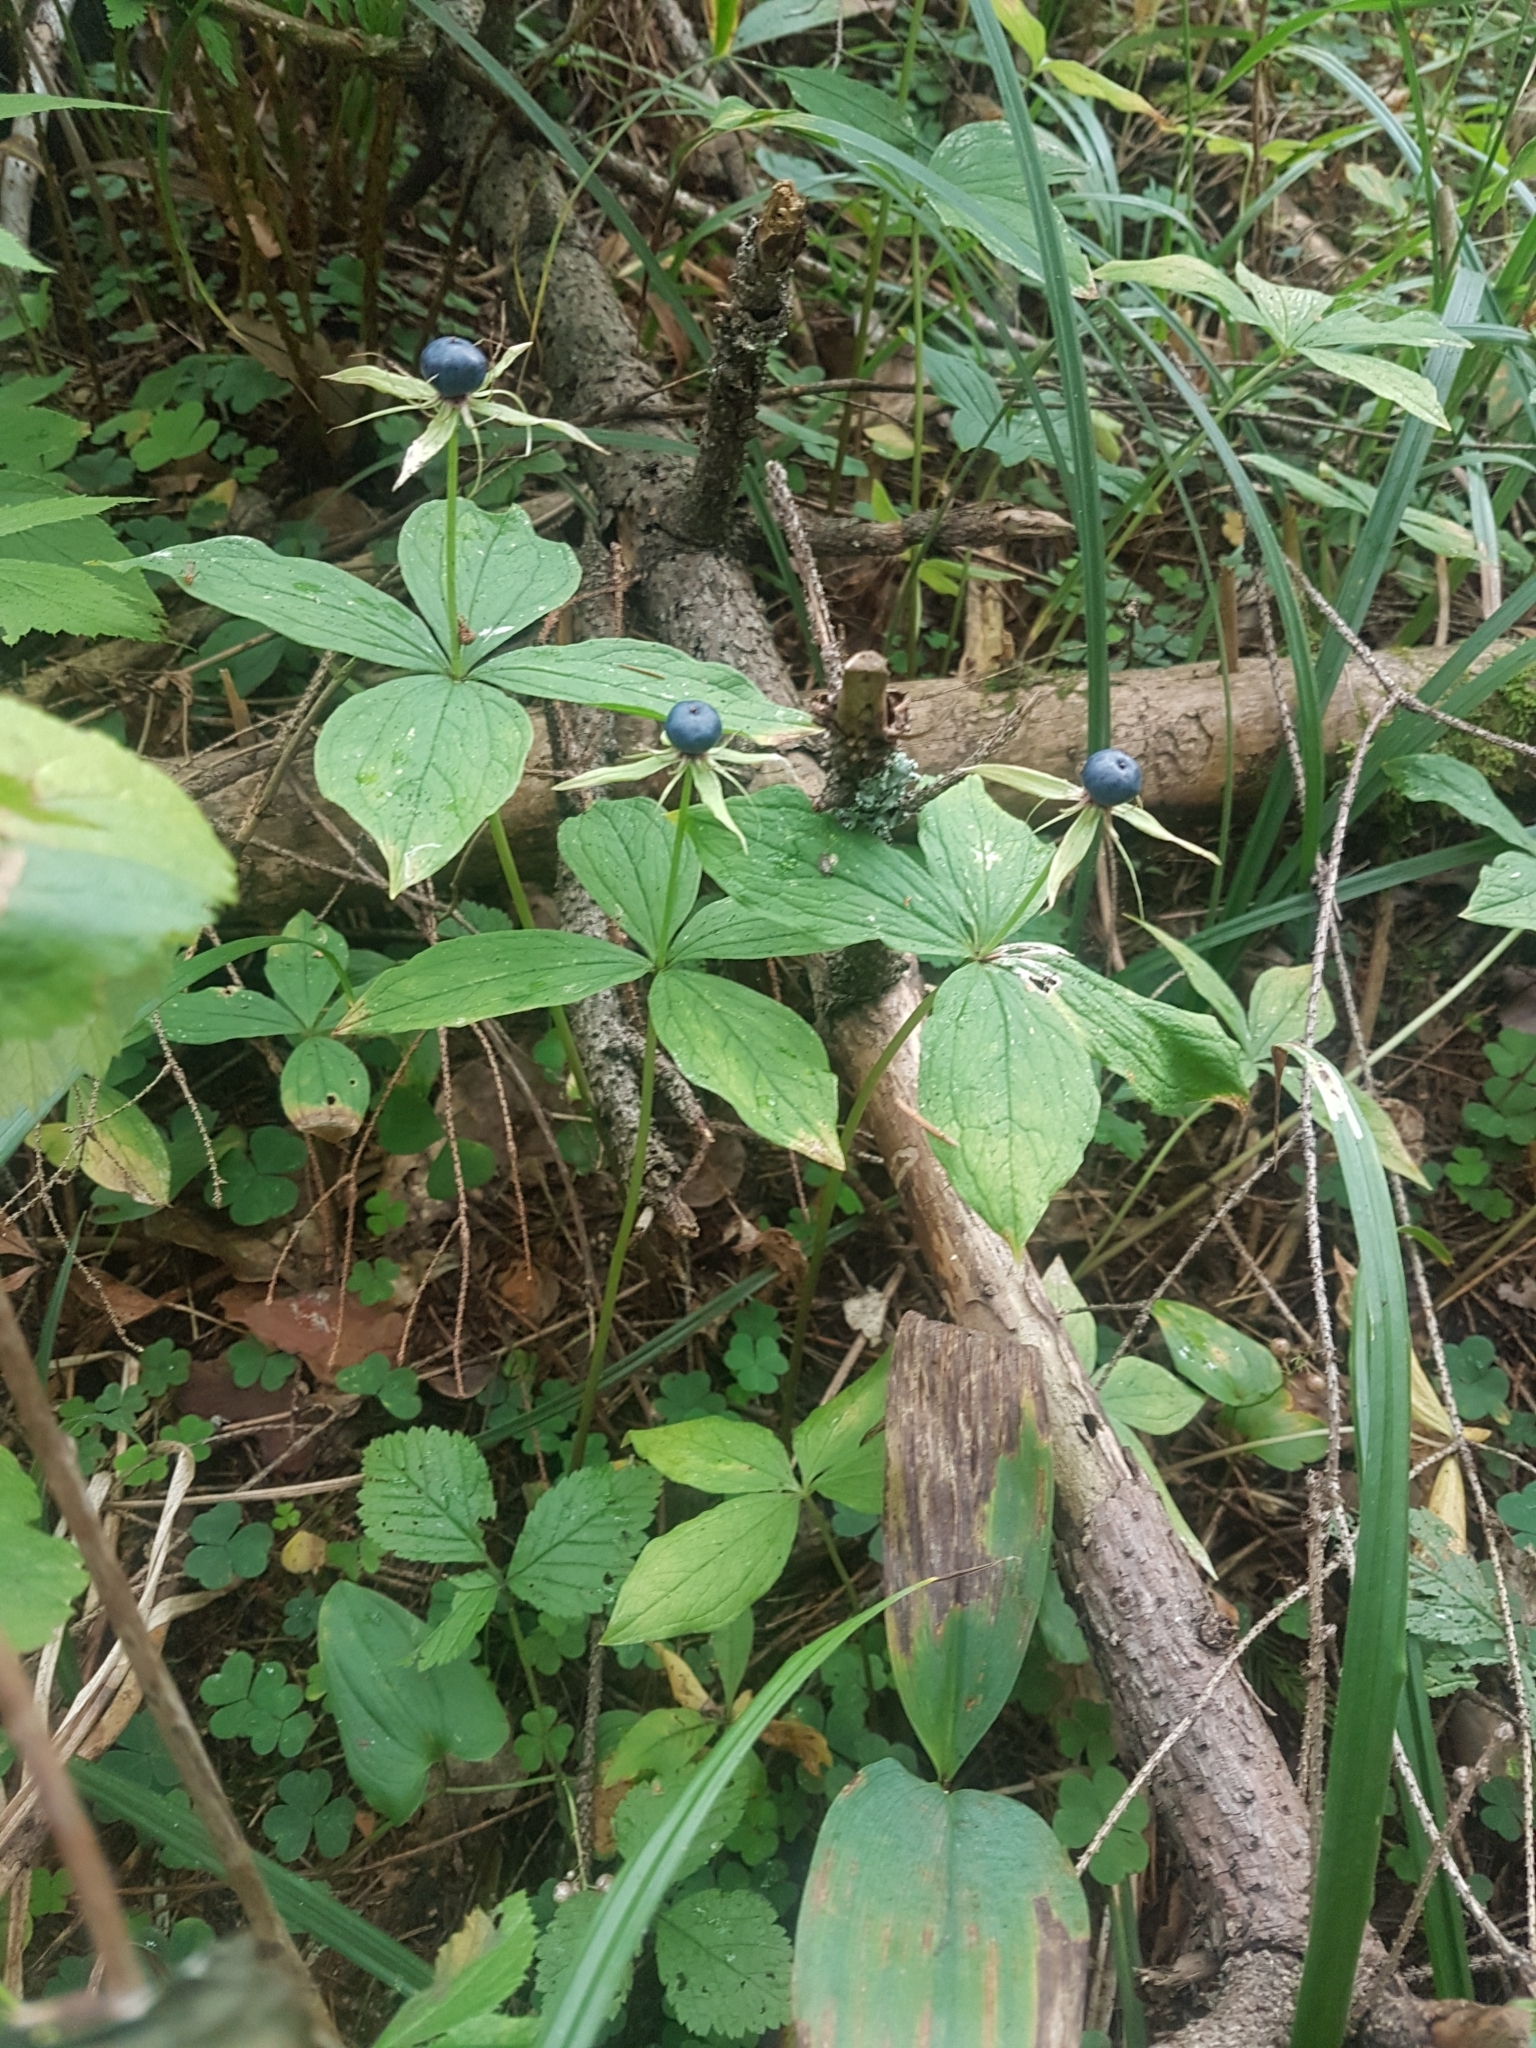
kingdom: Plantae
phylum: Tracheophyta
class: Liliopsida
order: Liliales
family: Melanthiaceae
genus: Paris
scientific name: Paris quadrifolia
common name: Herb-paris
